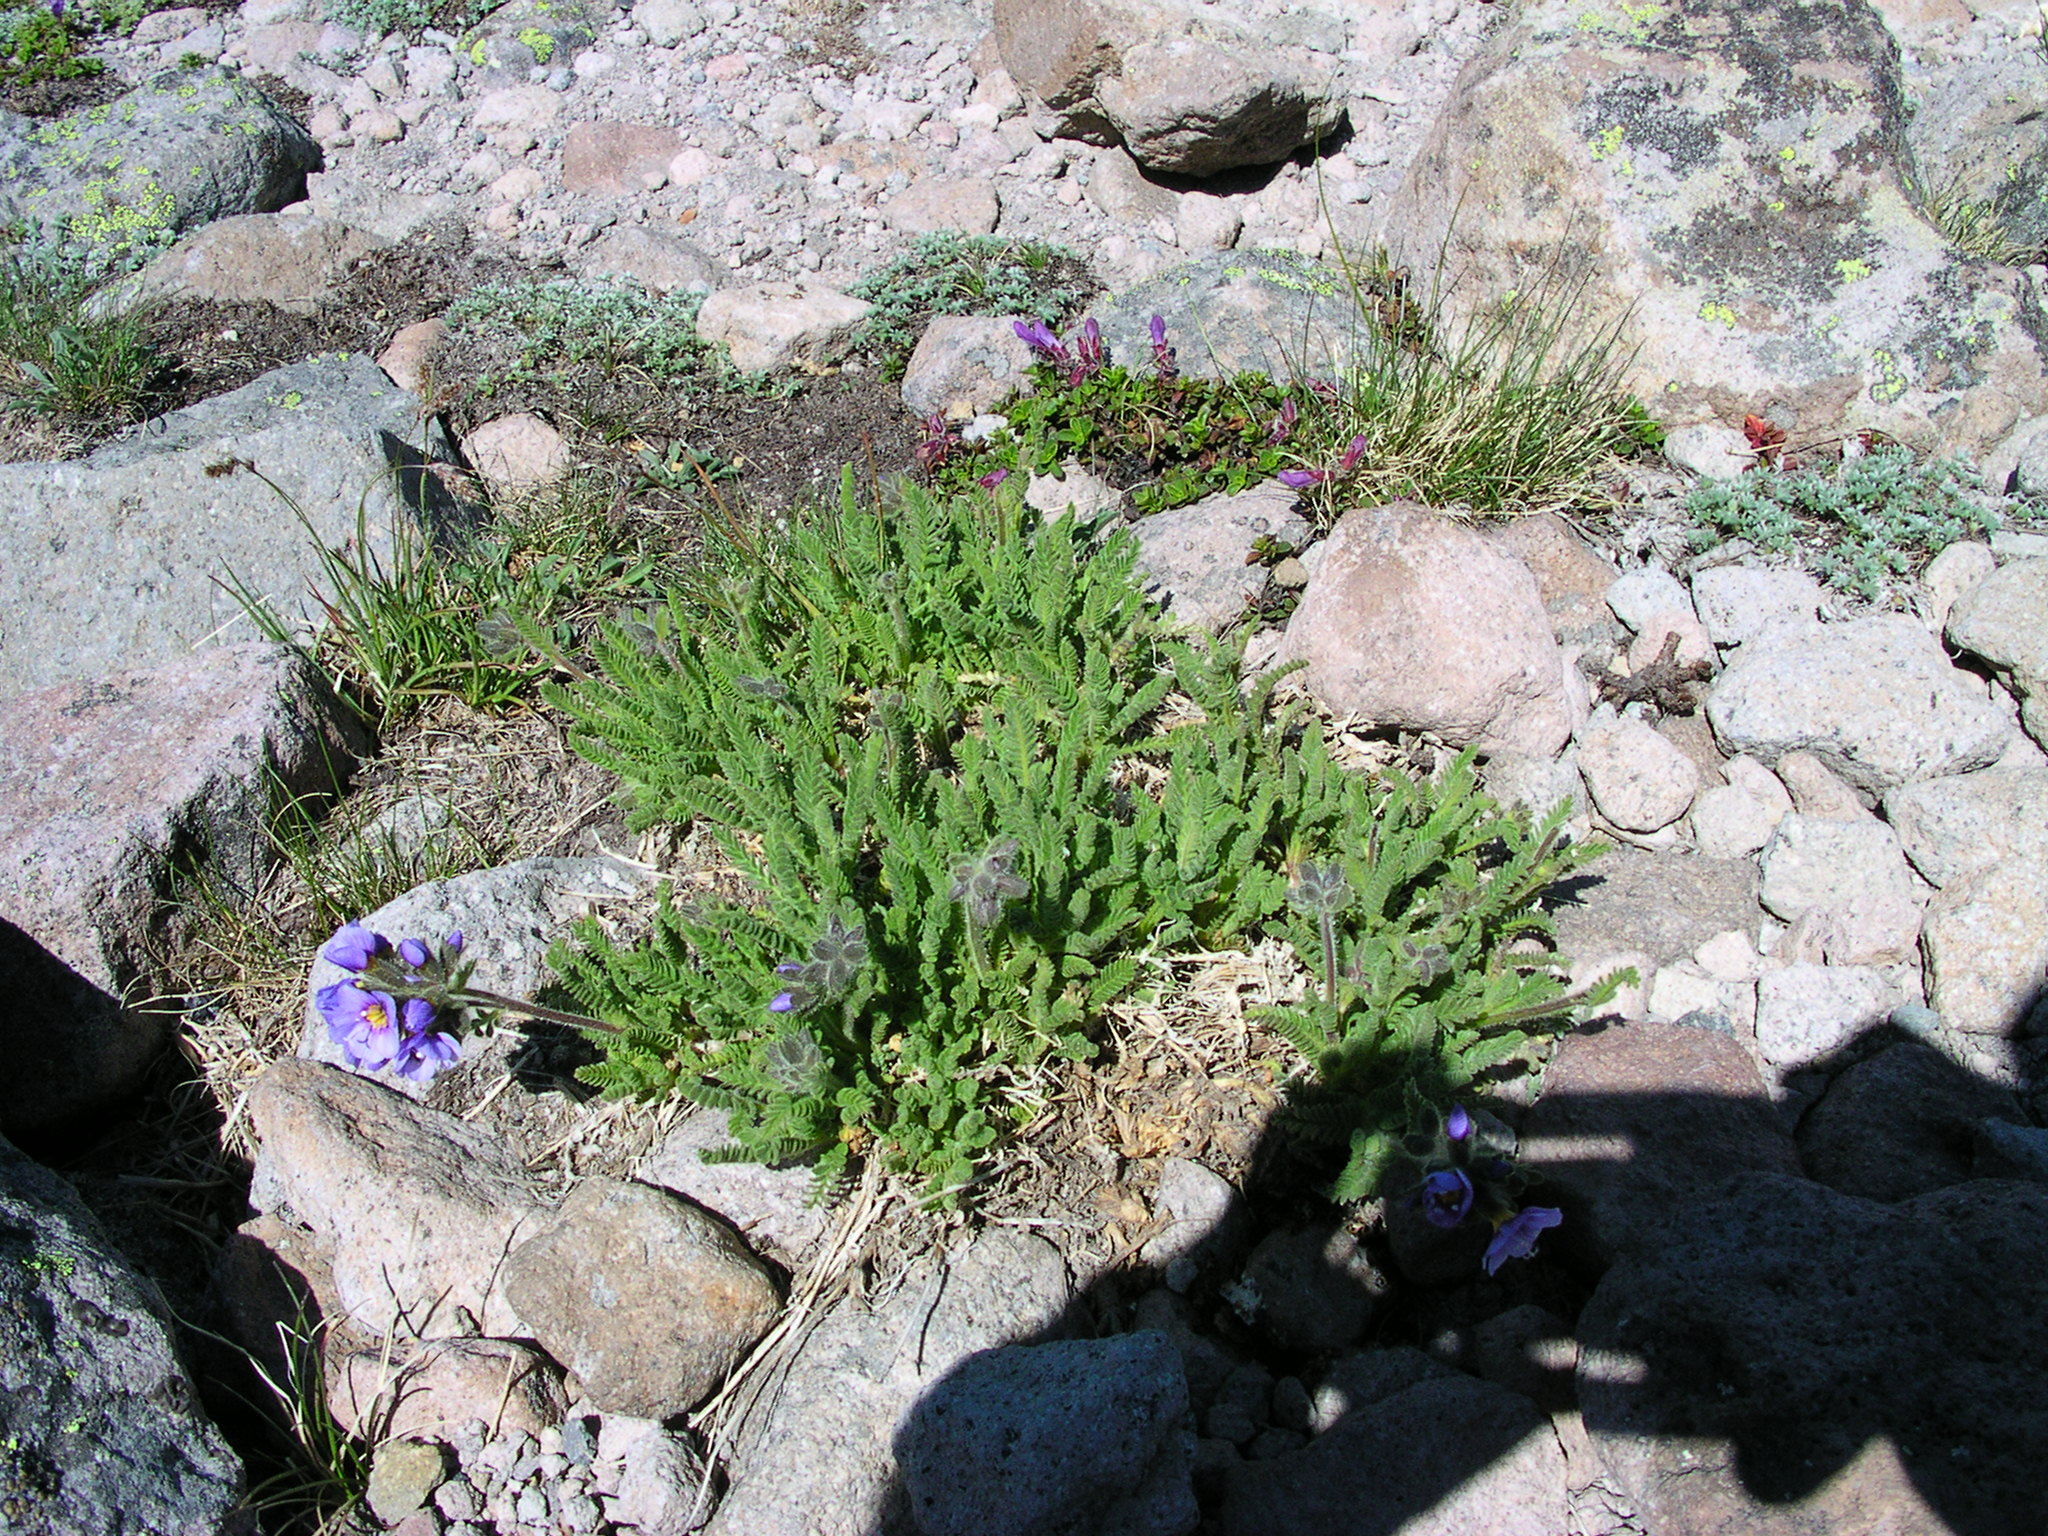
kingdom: Plantae
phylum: Tracheophyta
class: Magnoliopsida
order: Ericales
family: Polemoniaceae
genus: Polemonium
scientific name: Polemonium elegans
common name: Elegant jacob's-ladder
